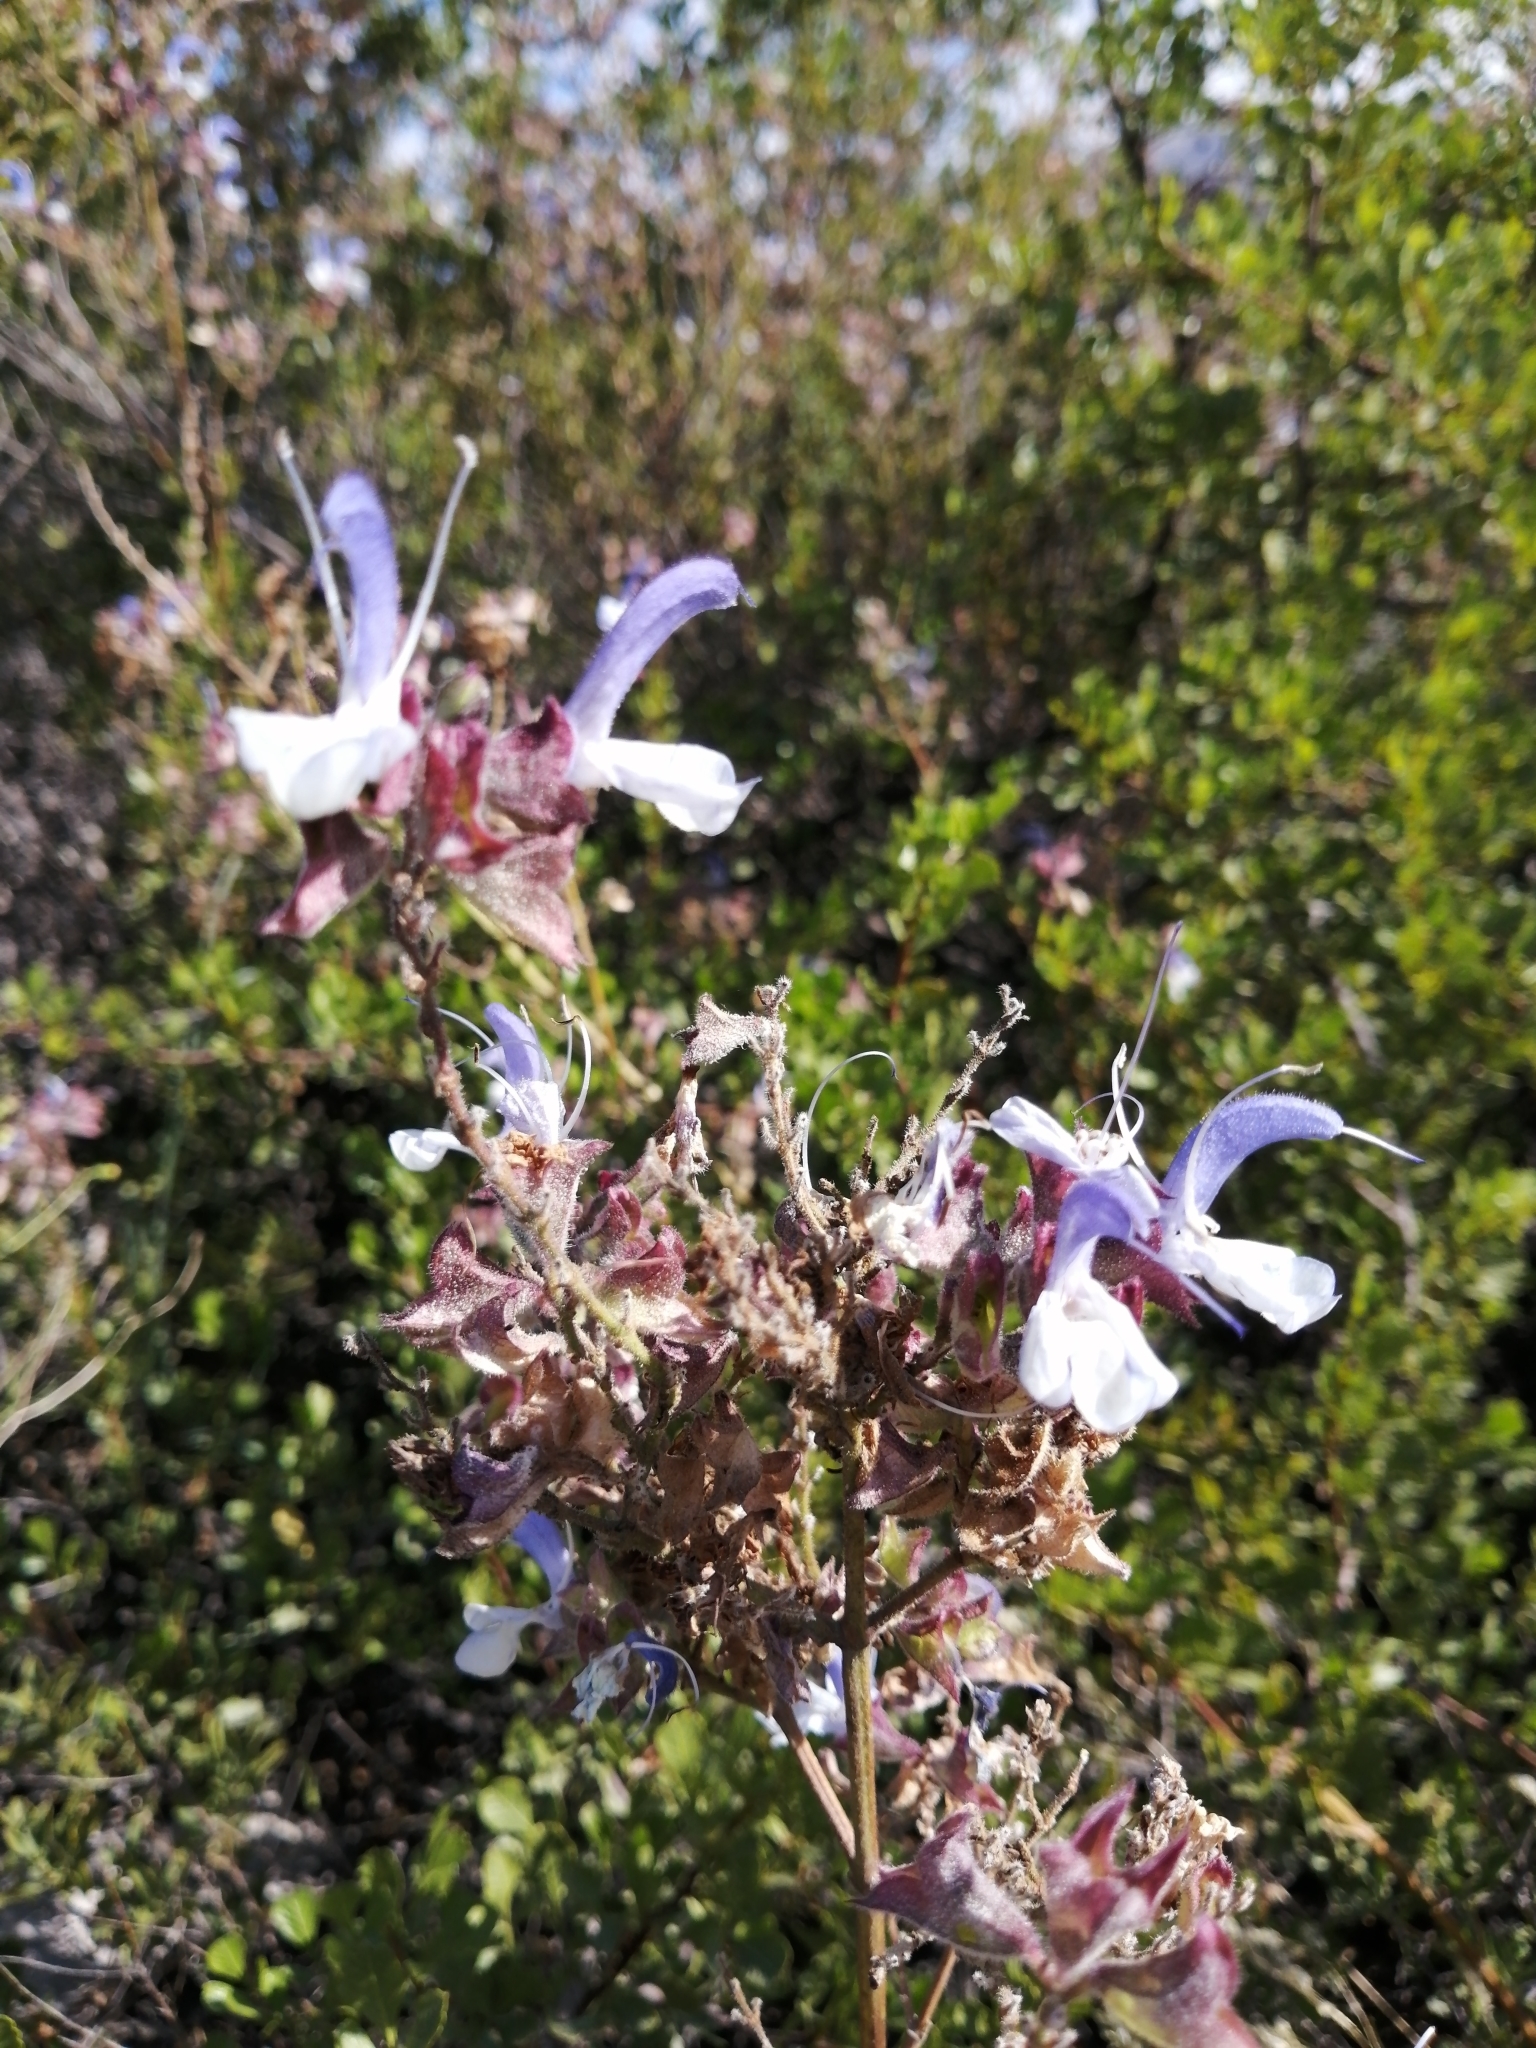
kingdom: Plantae
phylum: Tracheophyta
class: Magnoliopsida
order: Lamiales
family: Lamiaceae
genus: Salvia
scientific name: Salvia chamelaeagnea
